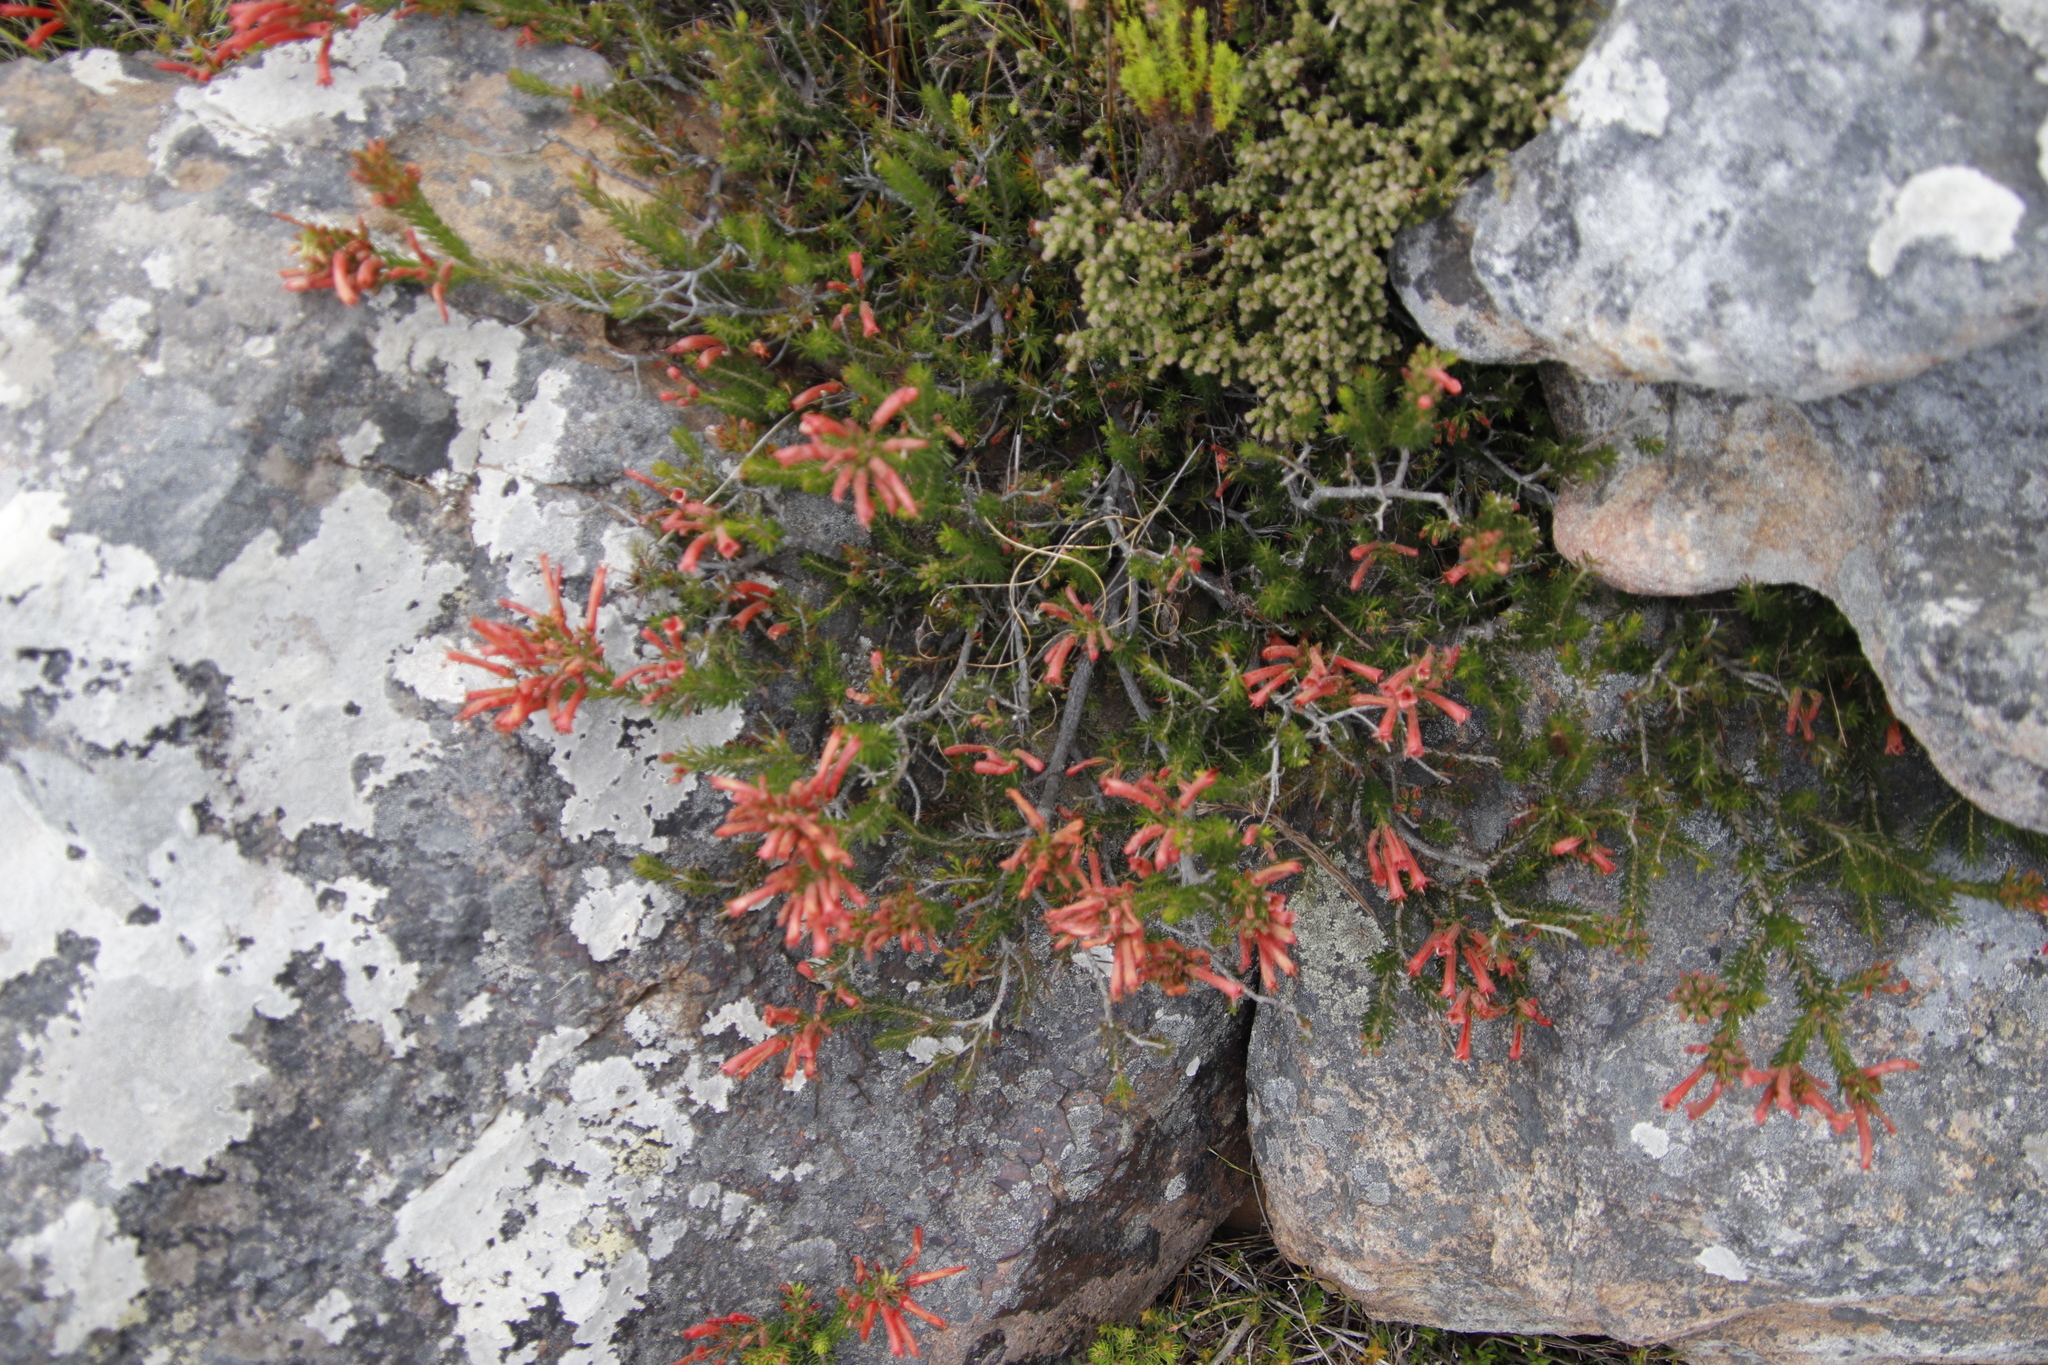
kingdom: Plantae
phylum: Tracheophyta
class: Magnoliopsida
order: Ericales
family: Ericaceae
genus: Erica
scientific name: Erica nevillei
